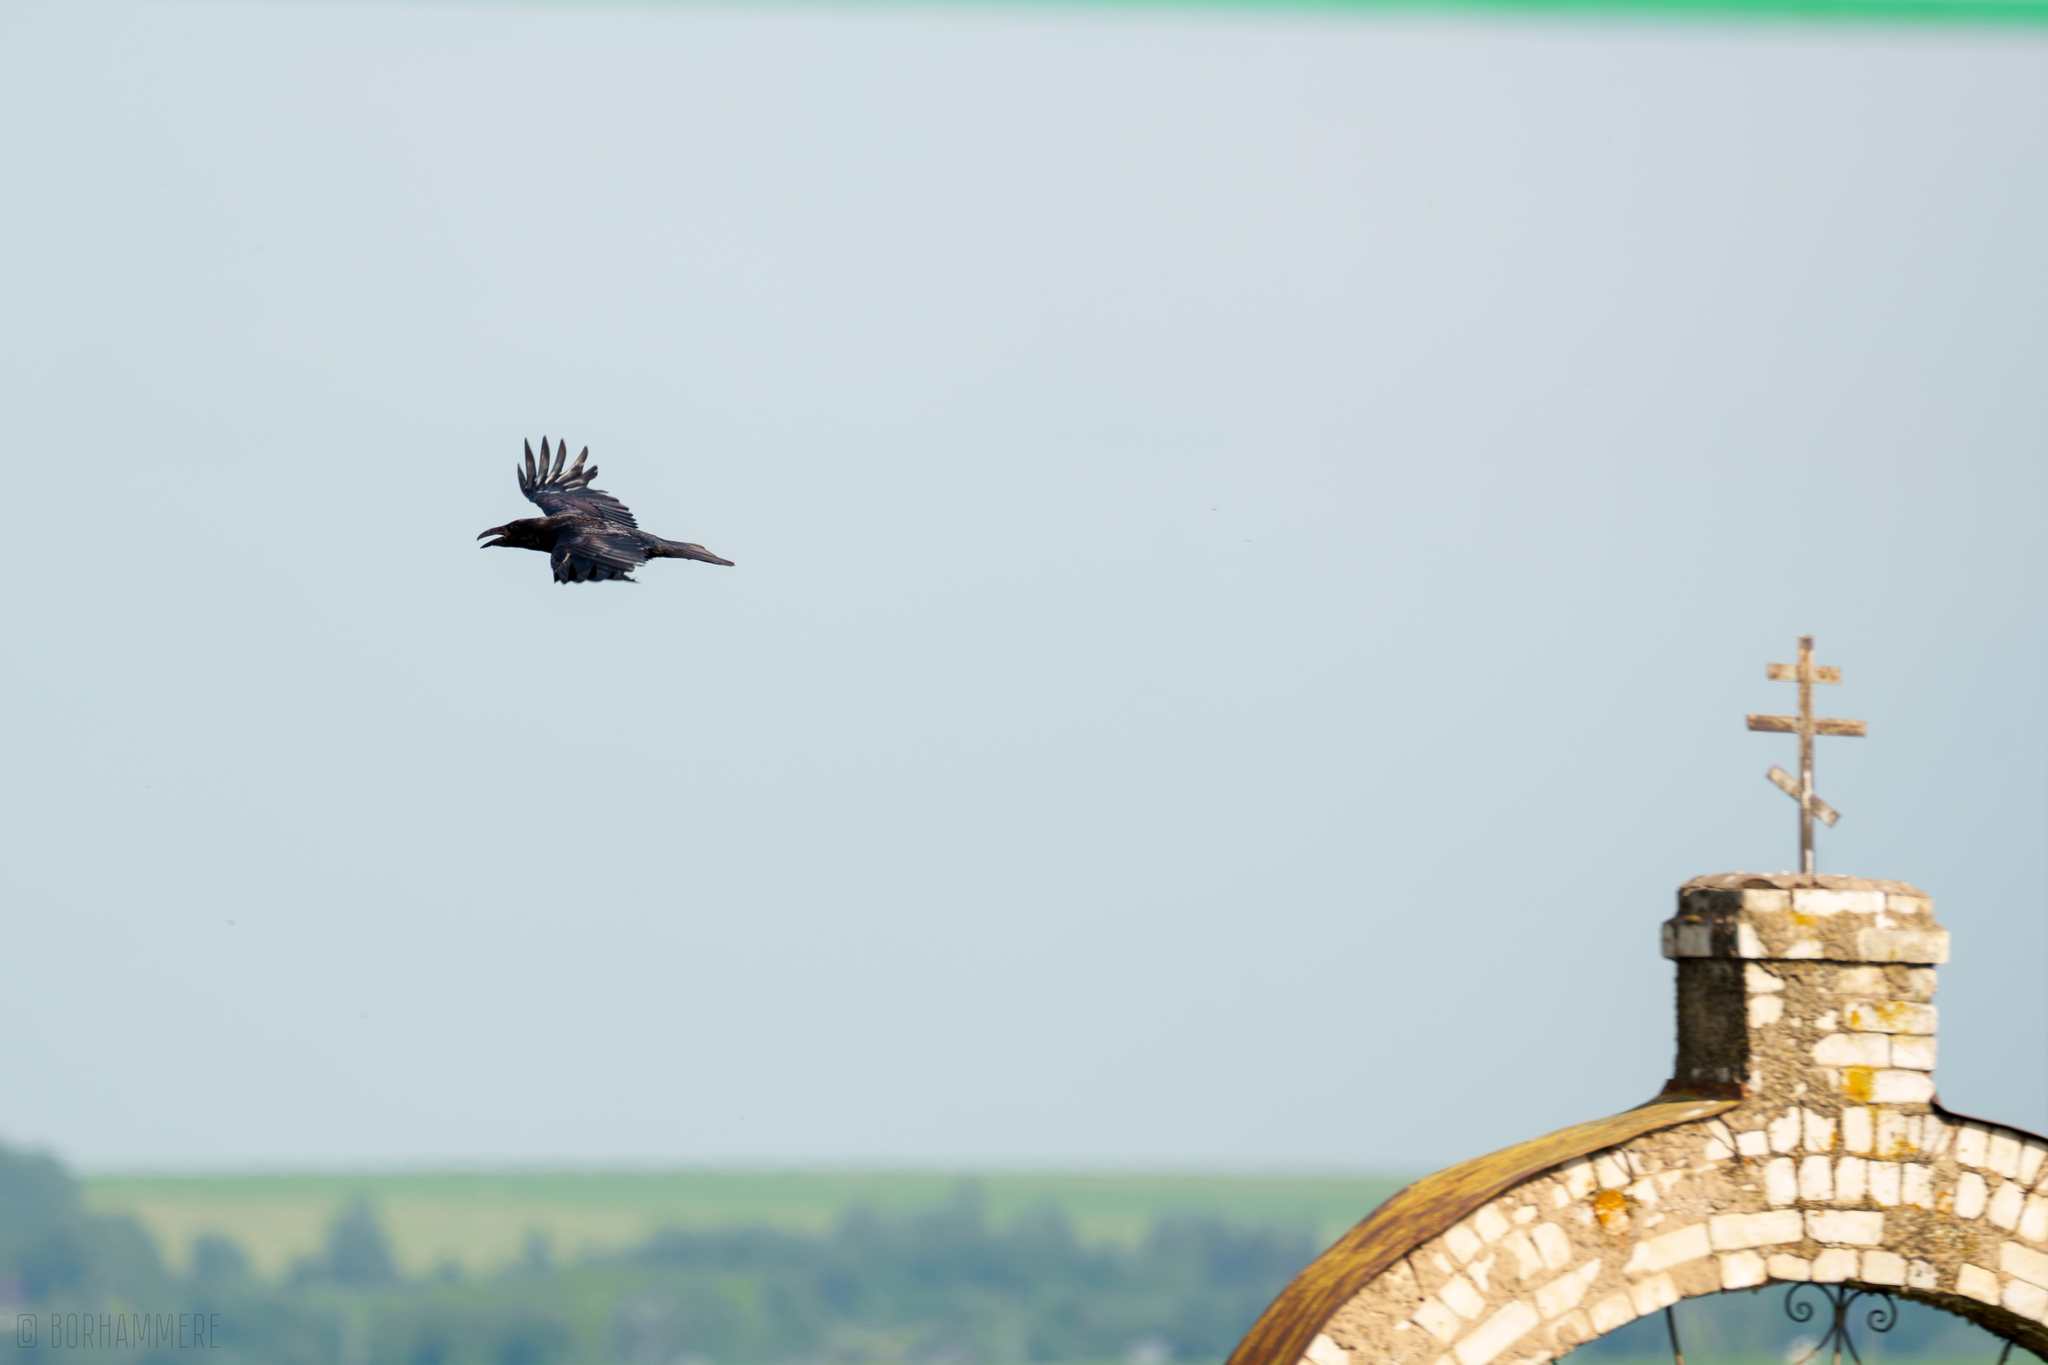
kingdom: Animalia
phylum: Chordata
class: Aves
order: Passeriformes
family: Corvidae
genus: Corvus
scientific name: Corvus corax
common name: Common raven
